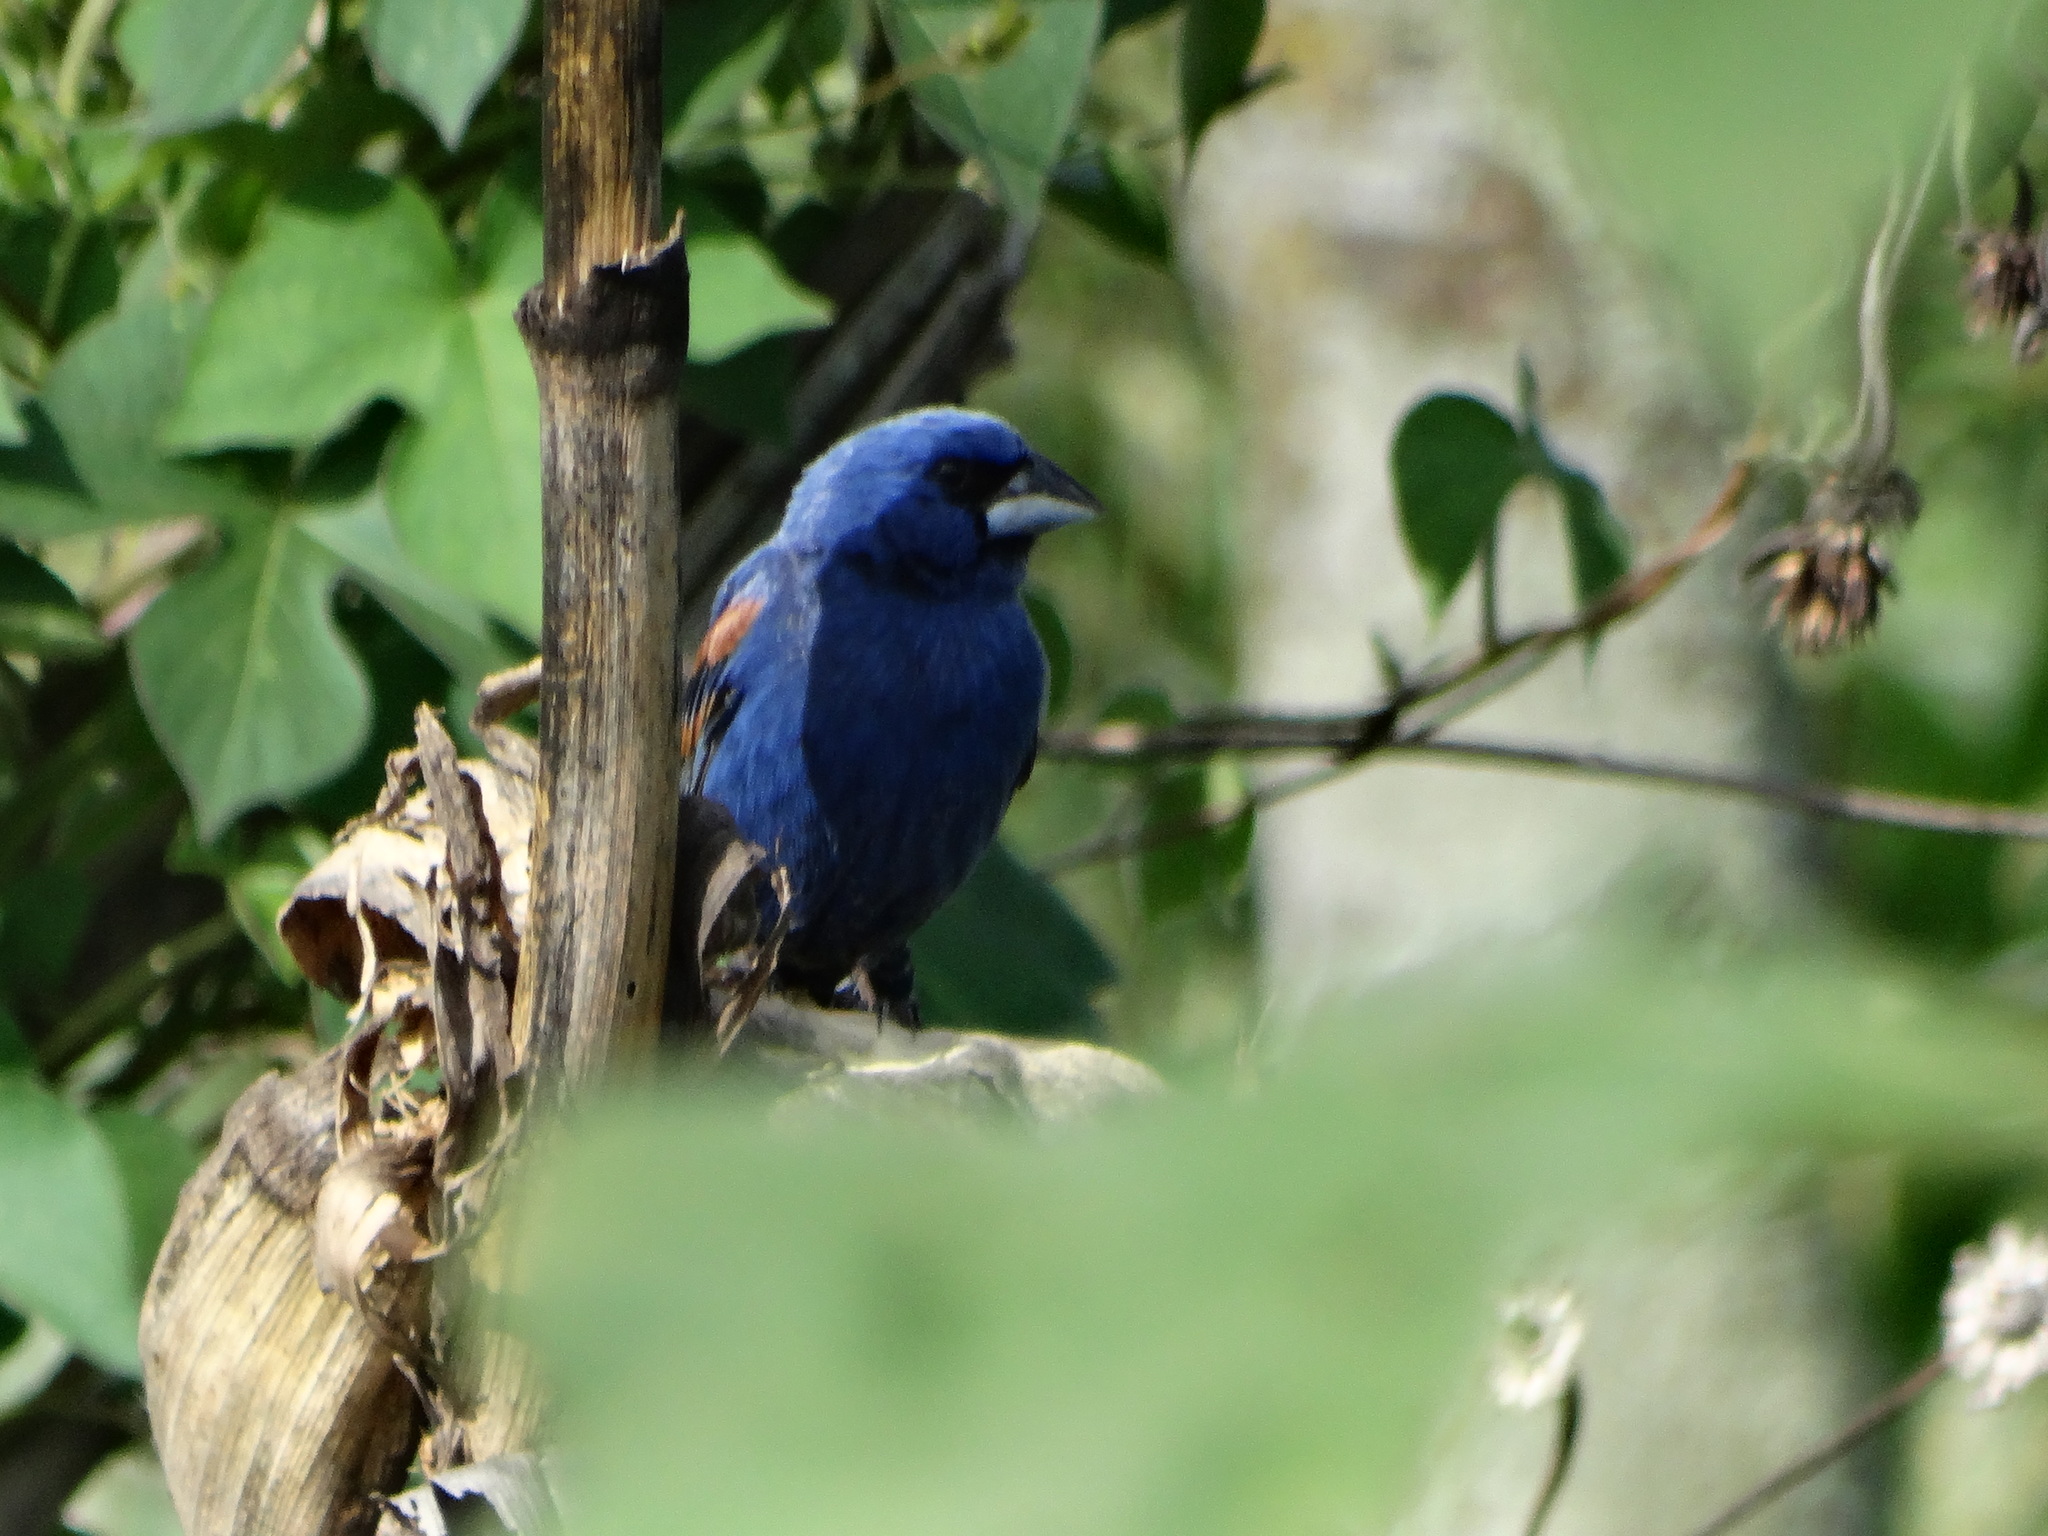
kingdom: Animalia
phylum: Chordata
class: Aves
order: Passeriformes
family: Cardinalidae
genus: Passerina
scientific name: Passerina caerulea
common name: Blue grosbeak
